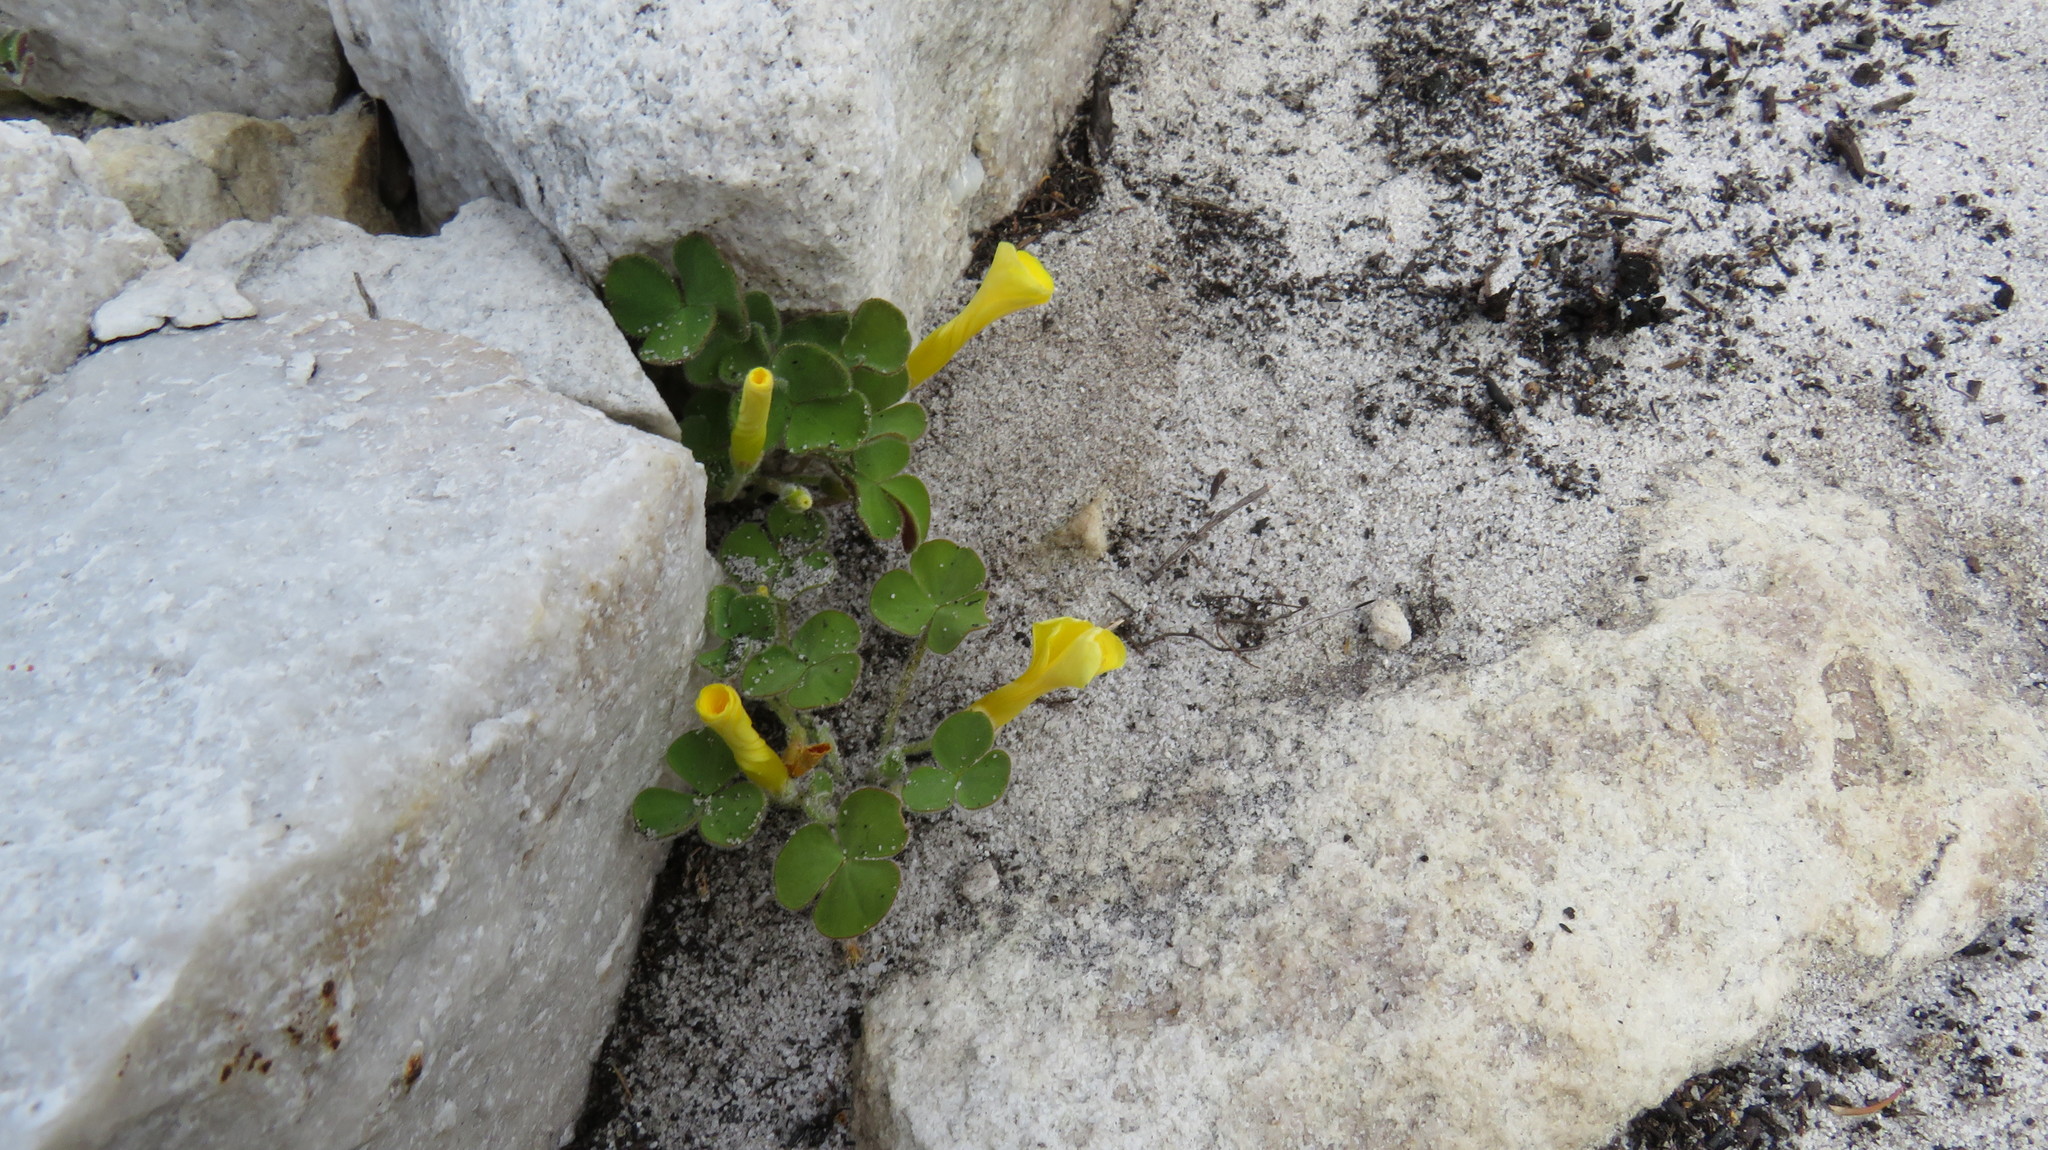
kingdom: Plantae
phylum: Tracheophyta
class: Magnoliopsida
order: Oxalidales
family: Oxalidaceae
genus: Oxalis
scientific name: Oxalis luteola
